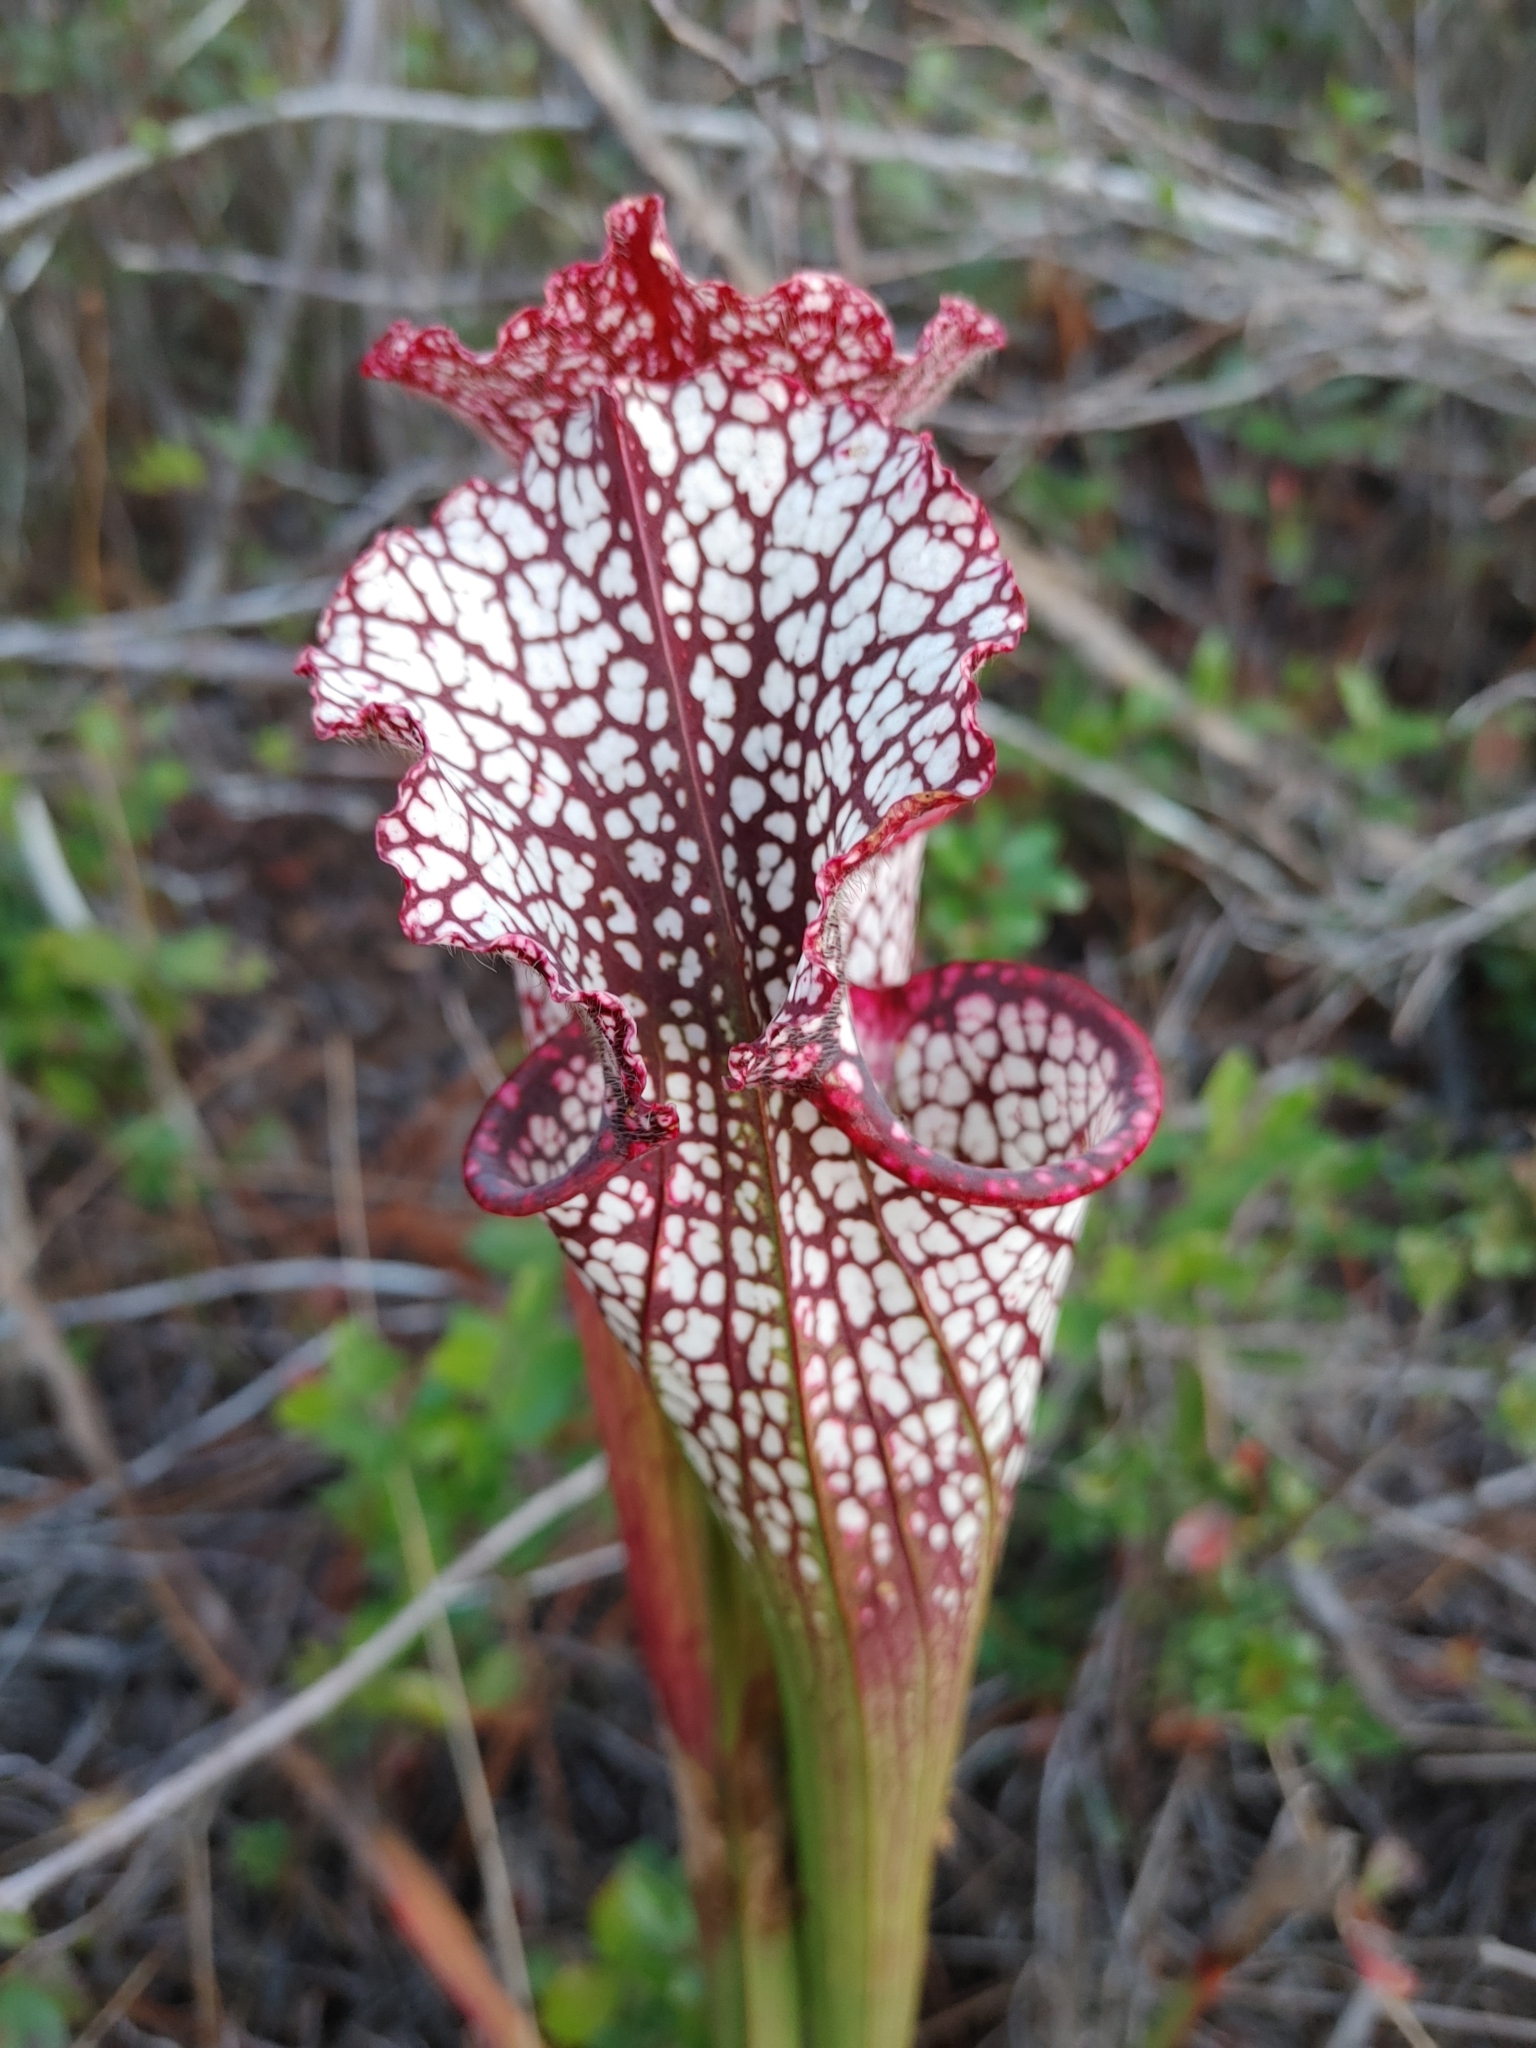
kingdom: Plantae
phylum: Tracheophyta
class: Magnoliopsida
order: Ericales
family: Sarraceniaceae
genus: Sarracenia
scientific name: Sarracenia leucophylla
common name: Purple trumpetleaf
